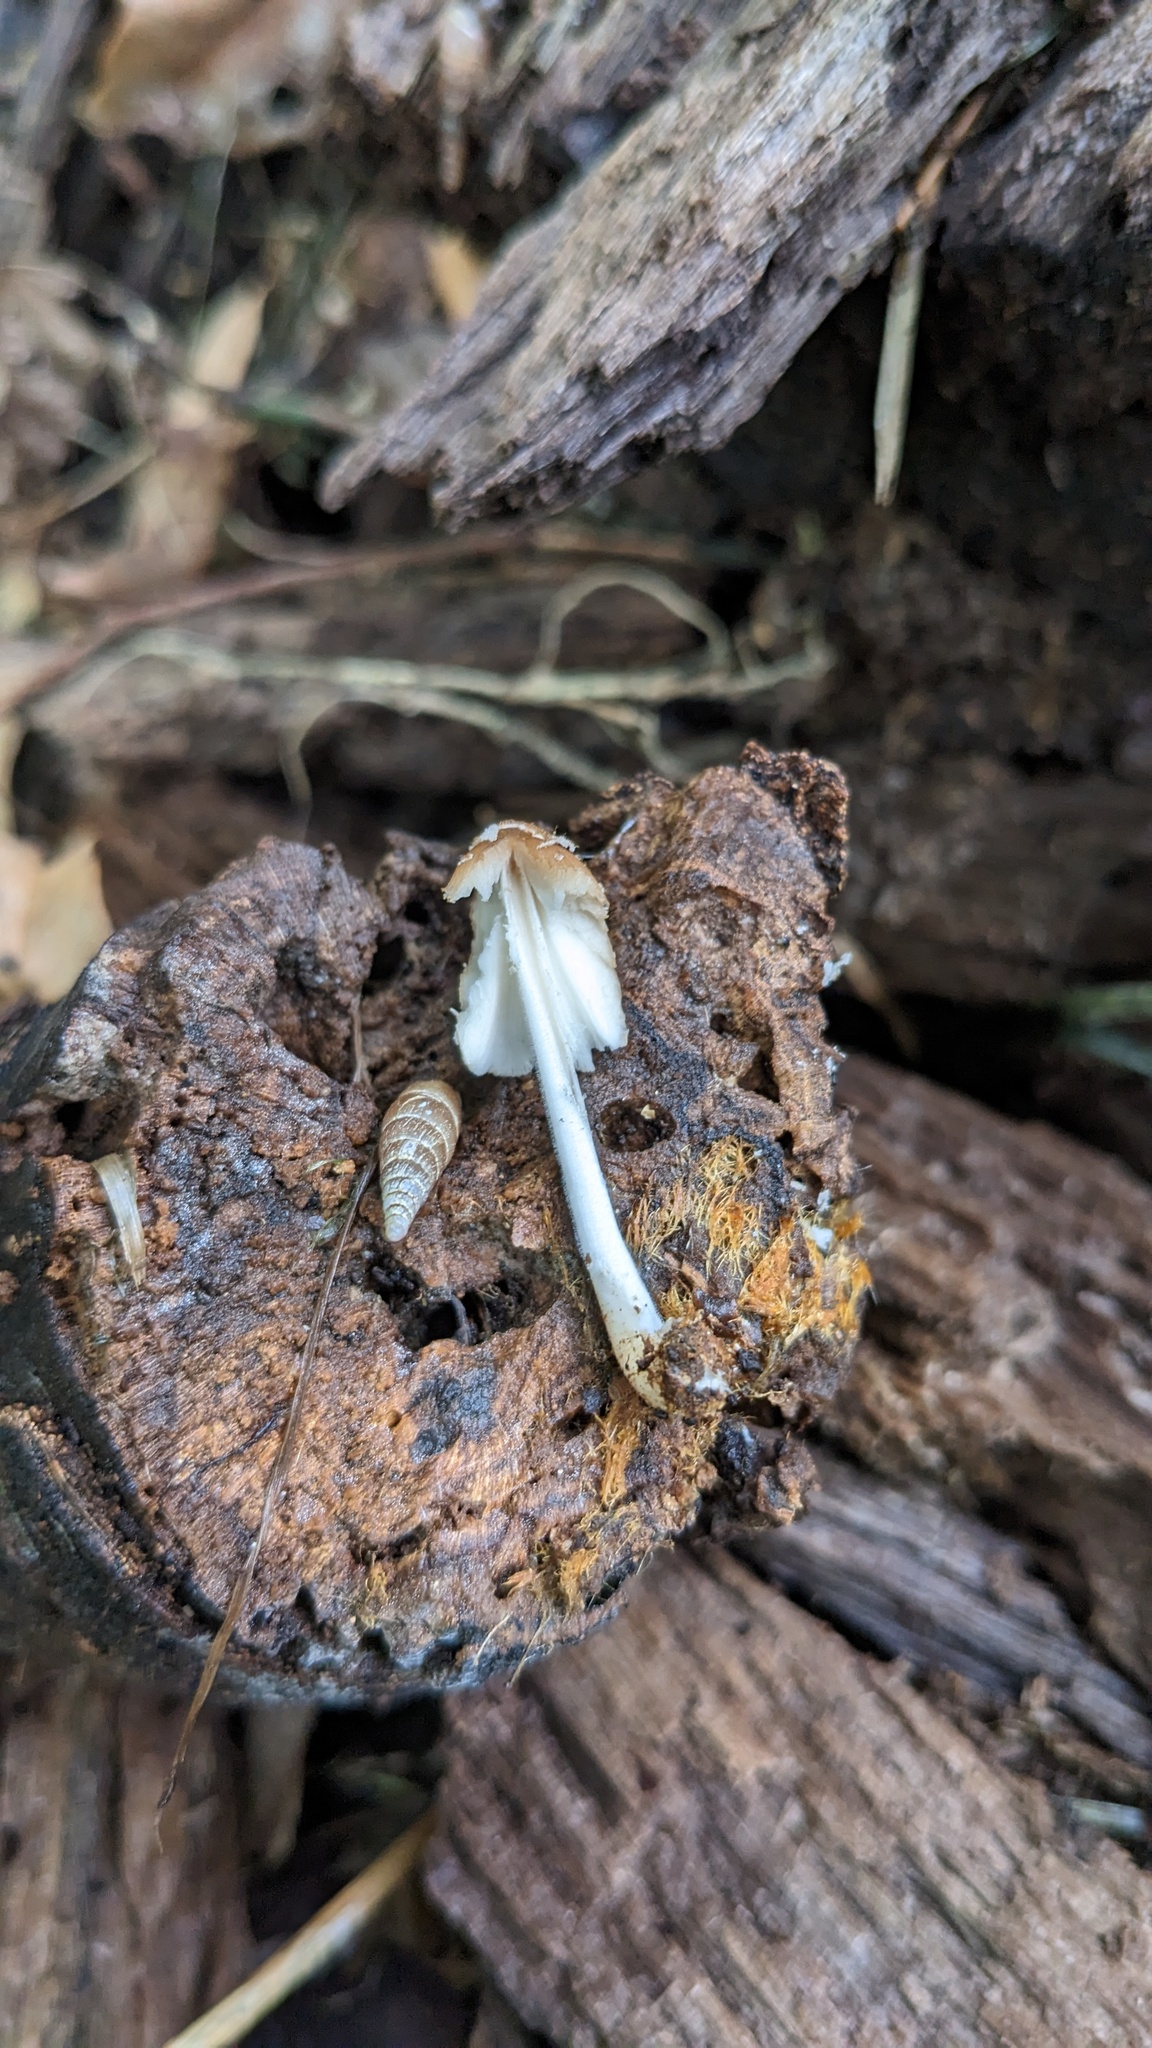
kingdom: Fungi
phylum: Basidiomycota
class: Agaricomycetes
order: Agaricales
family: Psathyrellaceae
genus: Coprinellus
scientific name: Coprinellus domesticus
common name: Firerug inkcap
